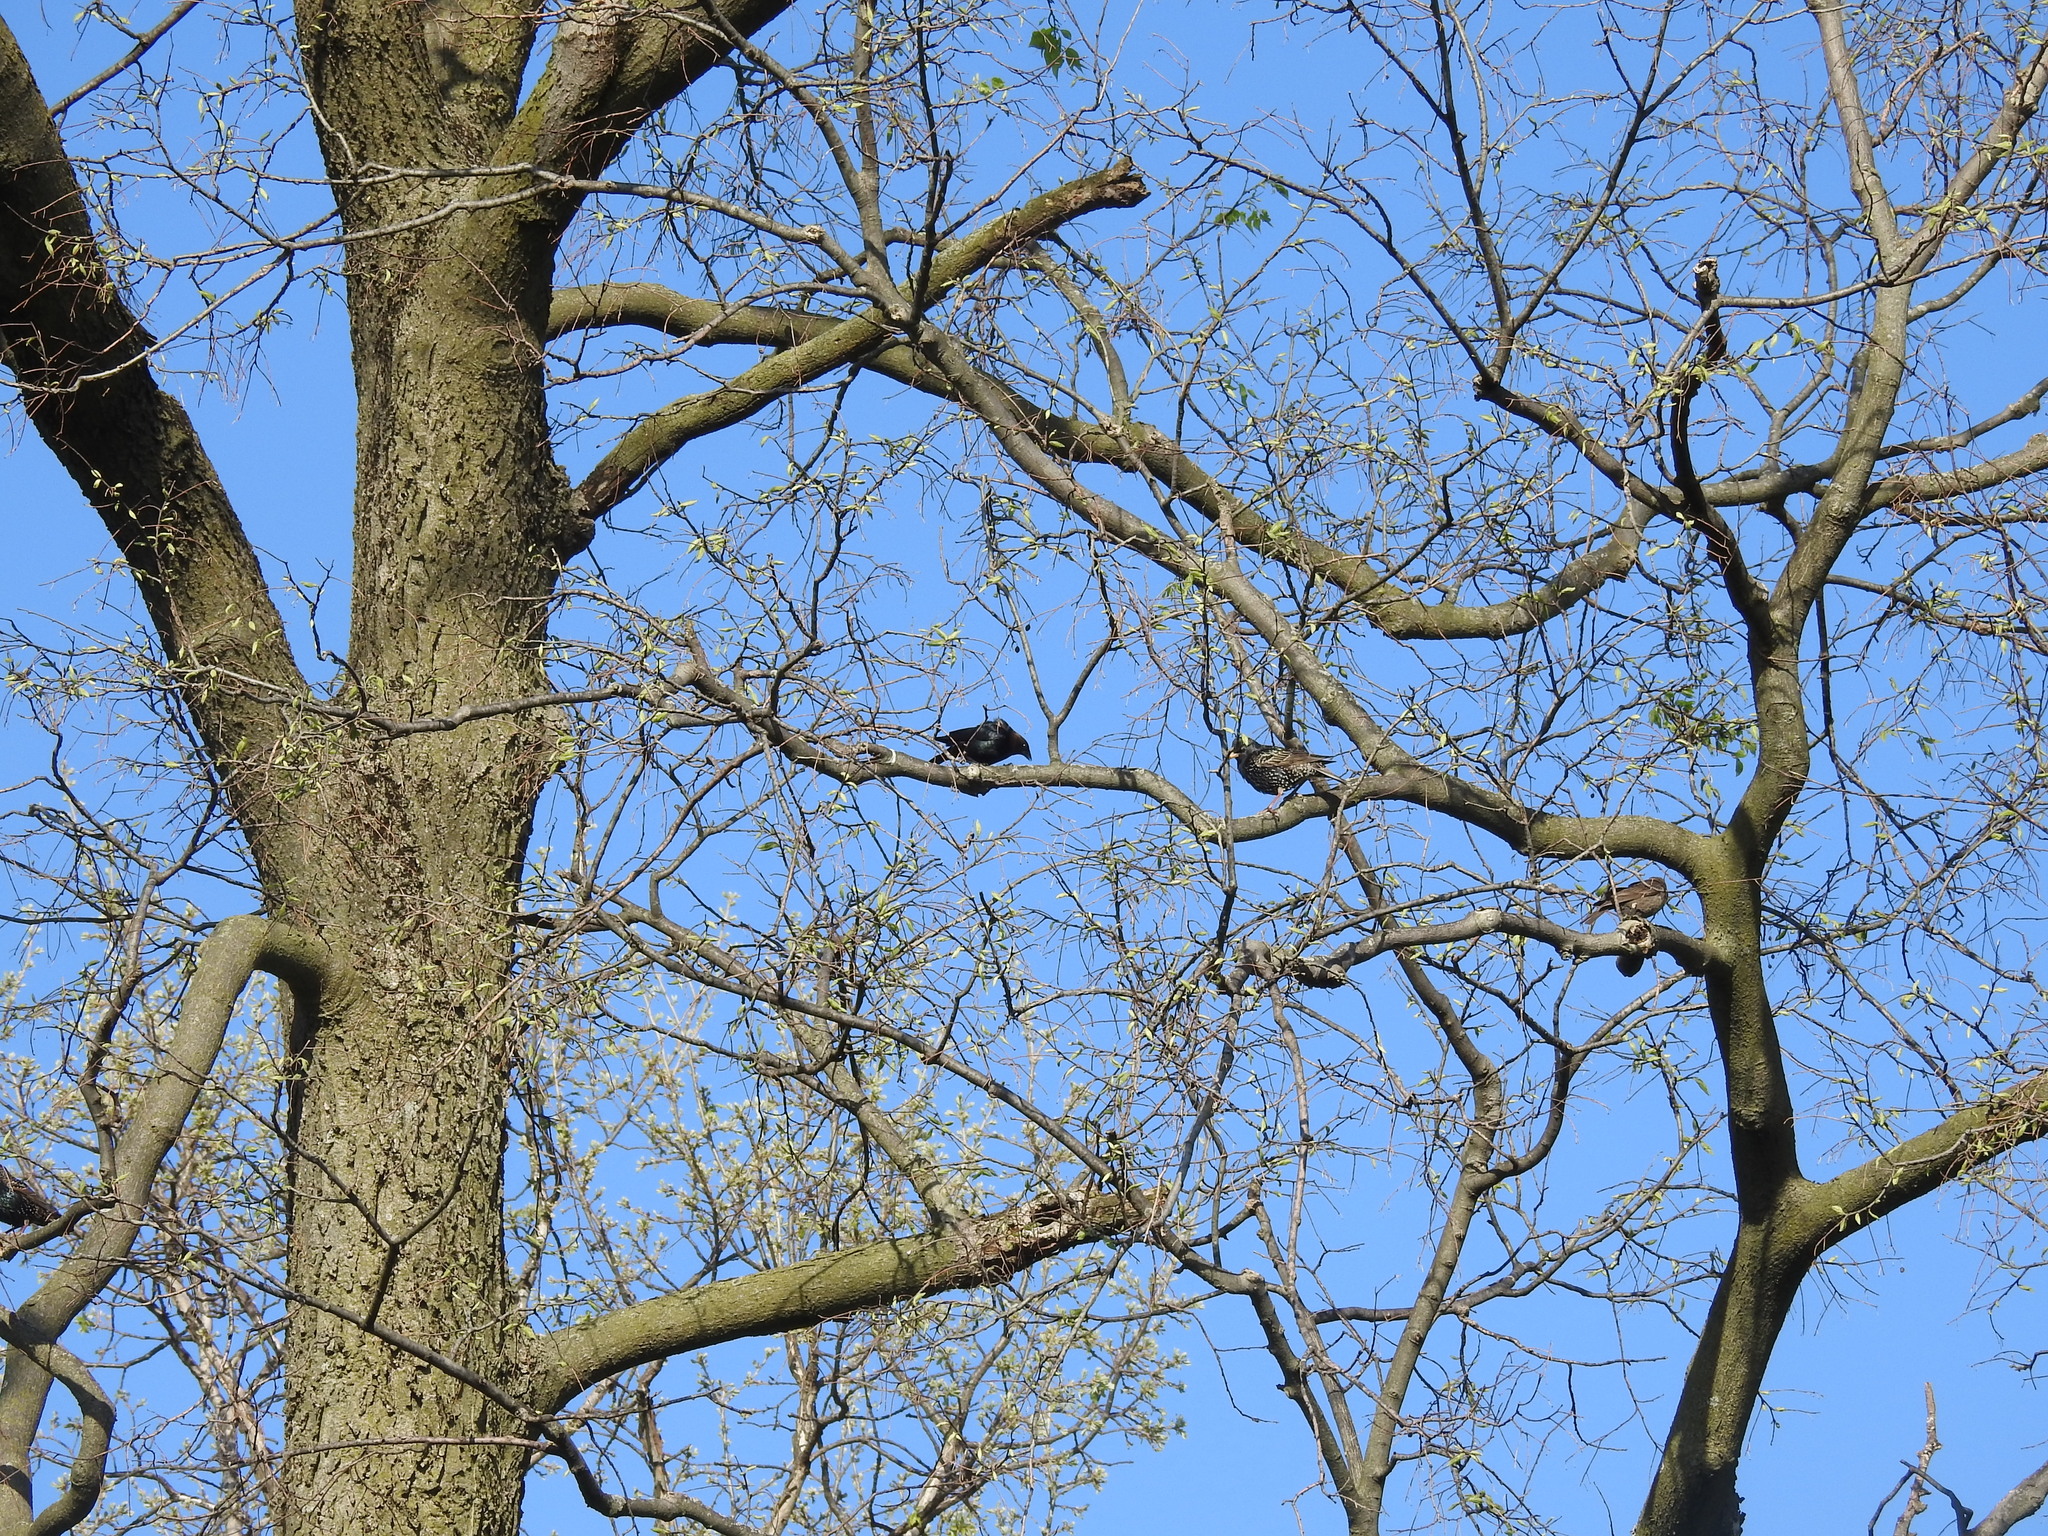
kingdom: Animalia
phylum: Chordata
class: Aves
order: Passeriformes
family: Sturnidae
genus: Sturnus
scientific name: Sturnus vulgaris
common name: Common starling
